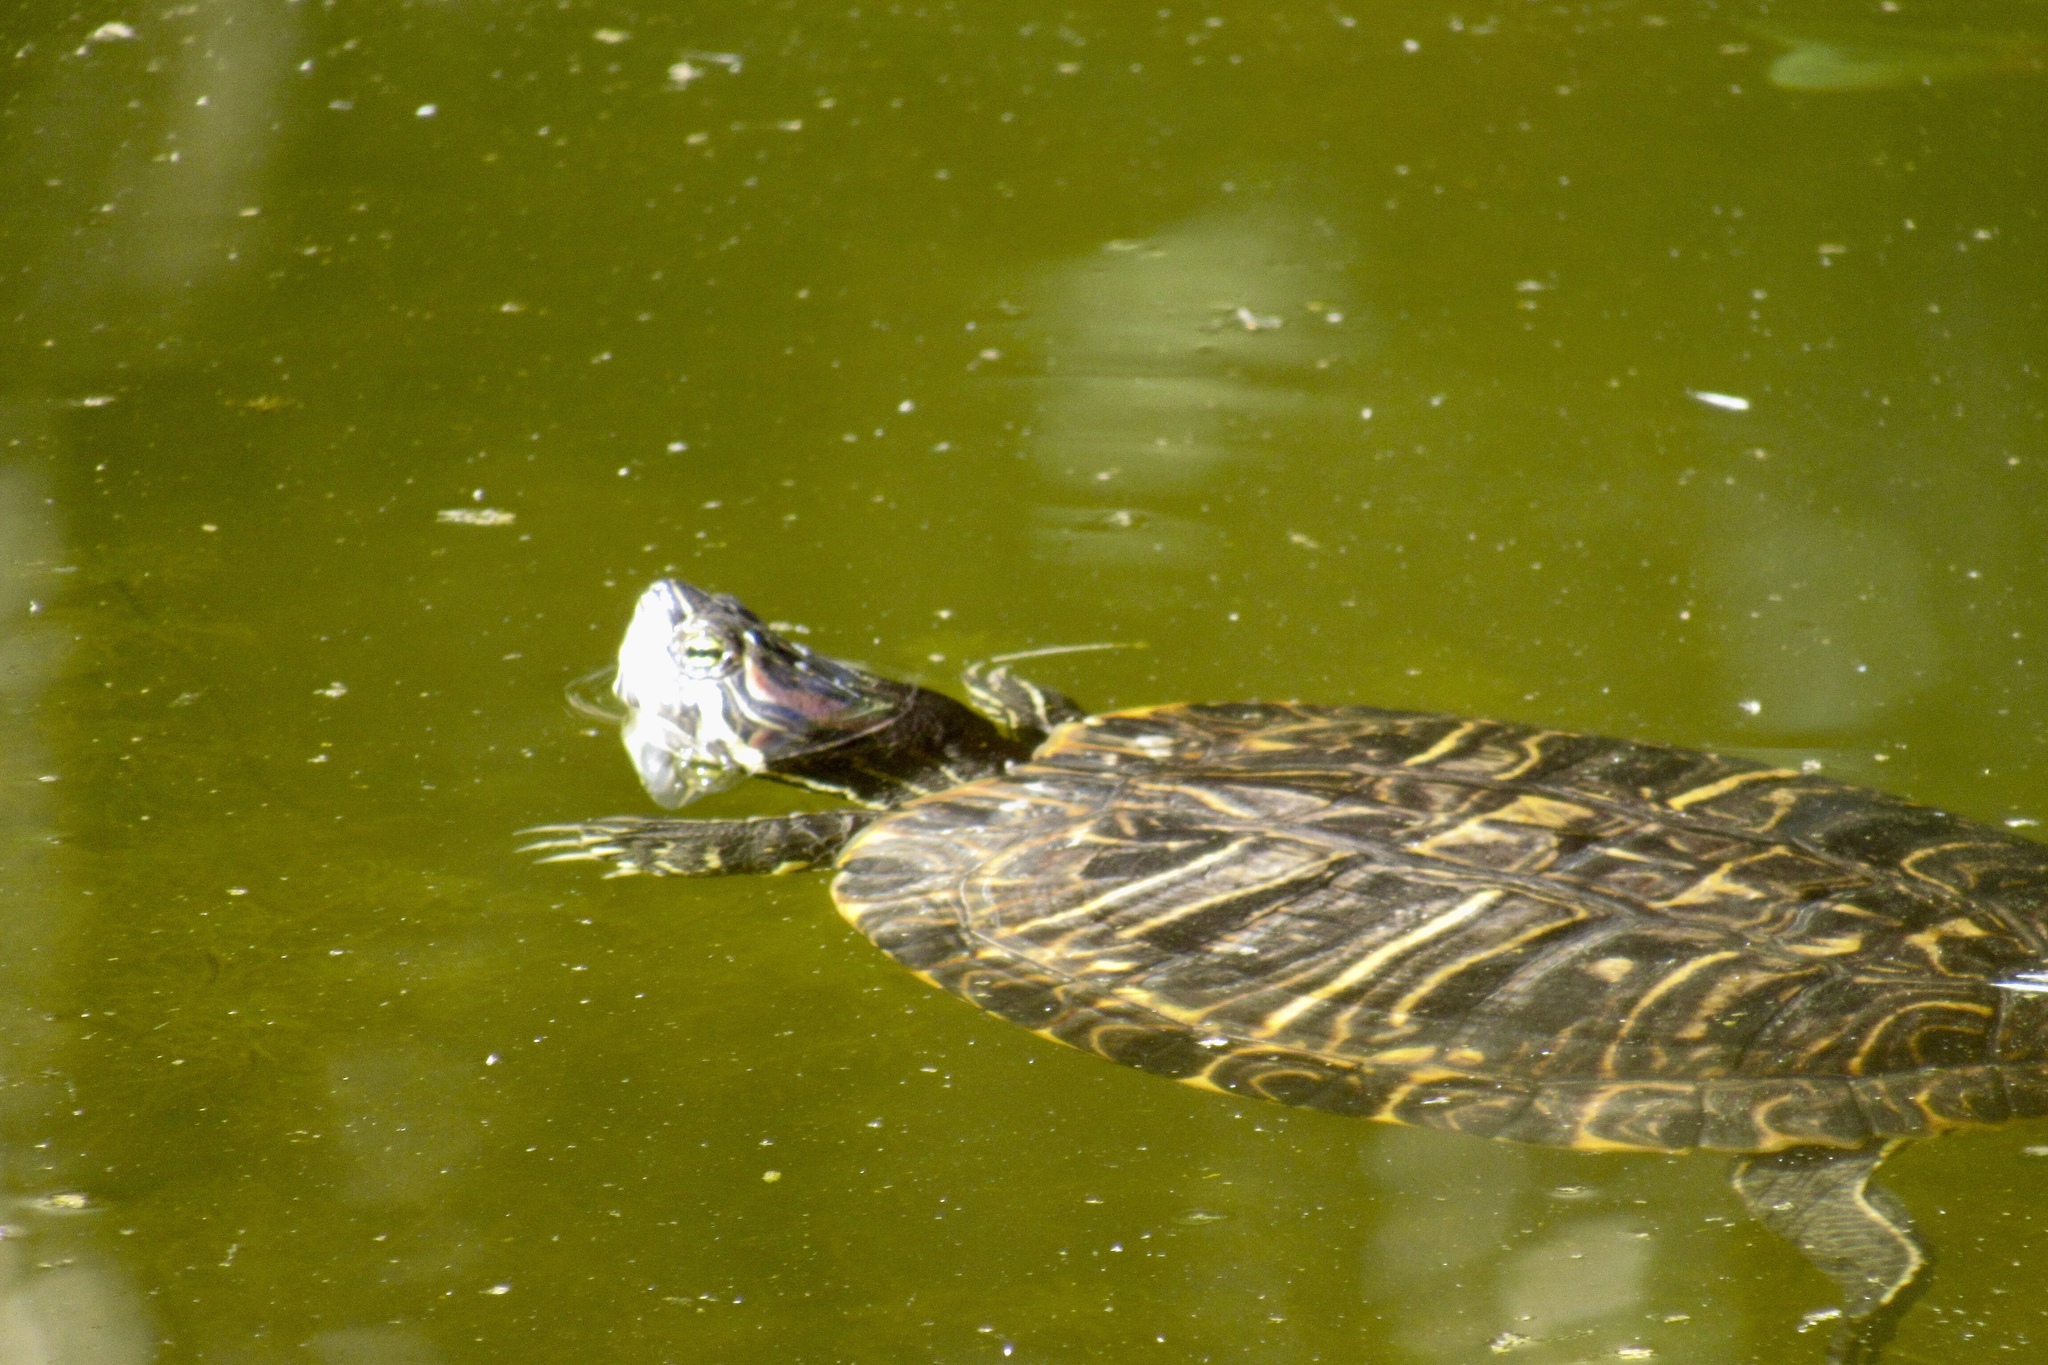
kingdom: Animalia
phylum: Chordata
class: Testudines
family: Emydidae
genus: Trachemys
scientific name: Trachemys scripta
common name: Slider
